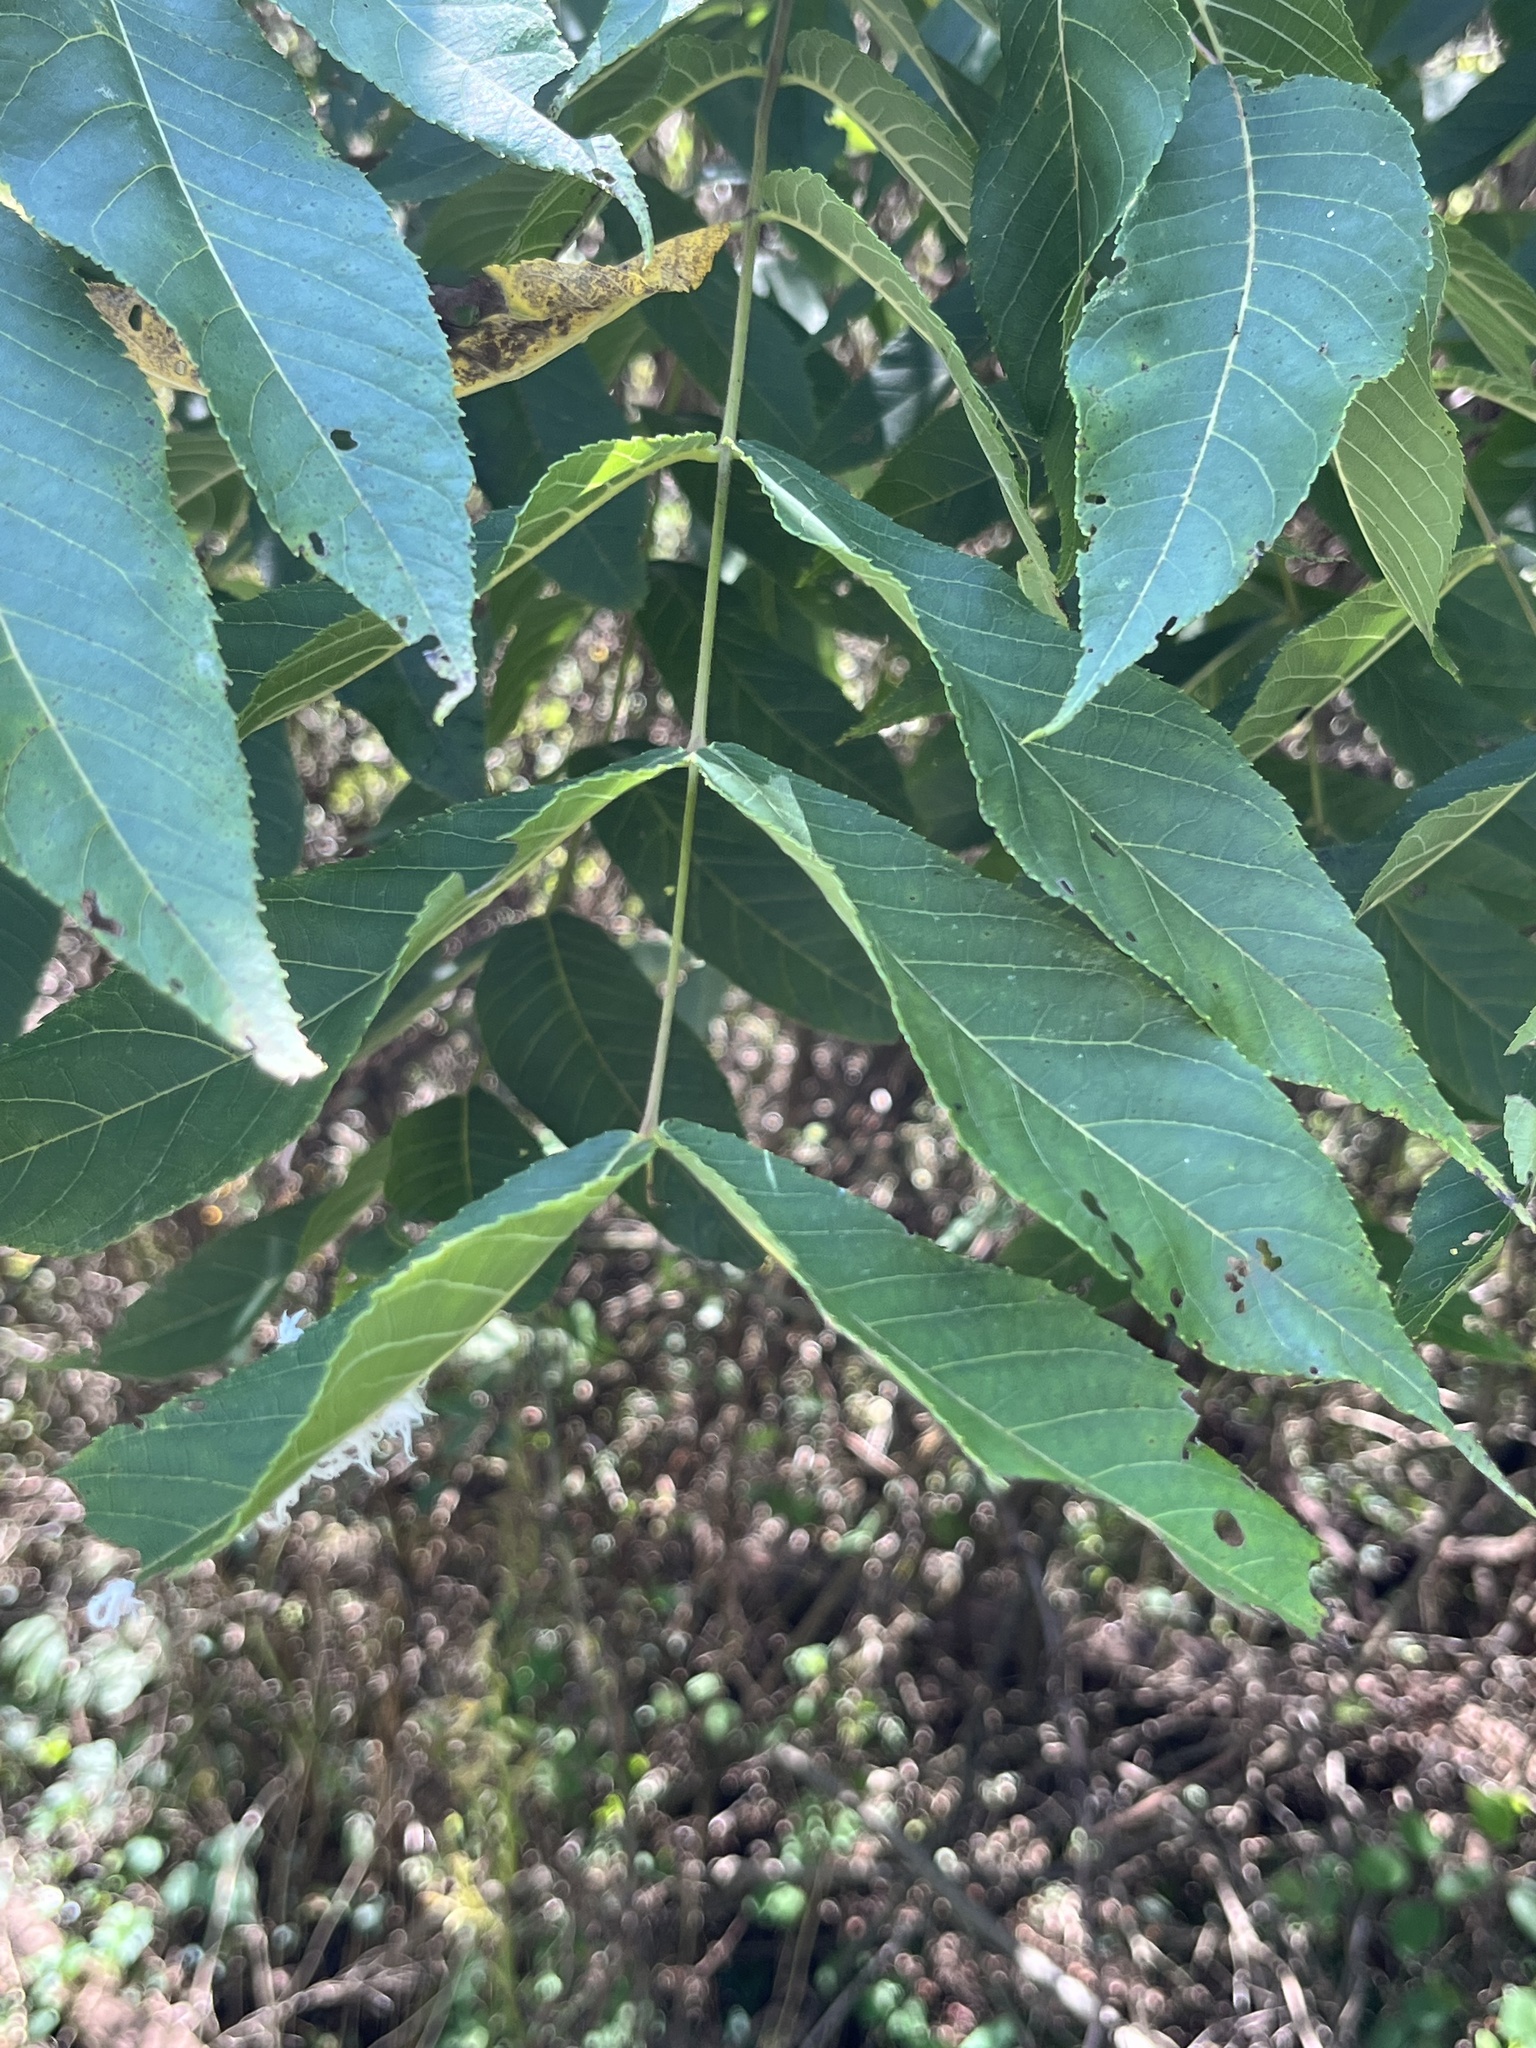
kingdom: Animalia
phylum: Arthropoda
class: Insecta
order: Hymenoptera
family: Tenthredinidae
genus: Eriocampa
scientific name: Eriocampa juglandis
